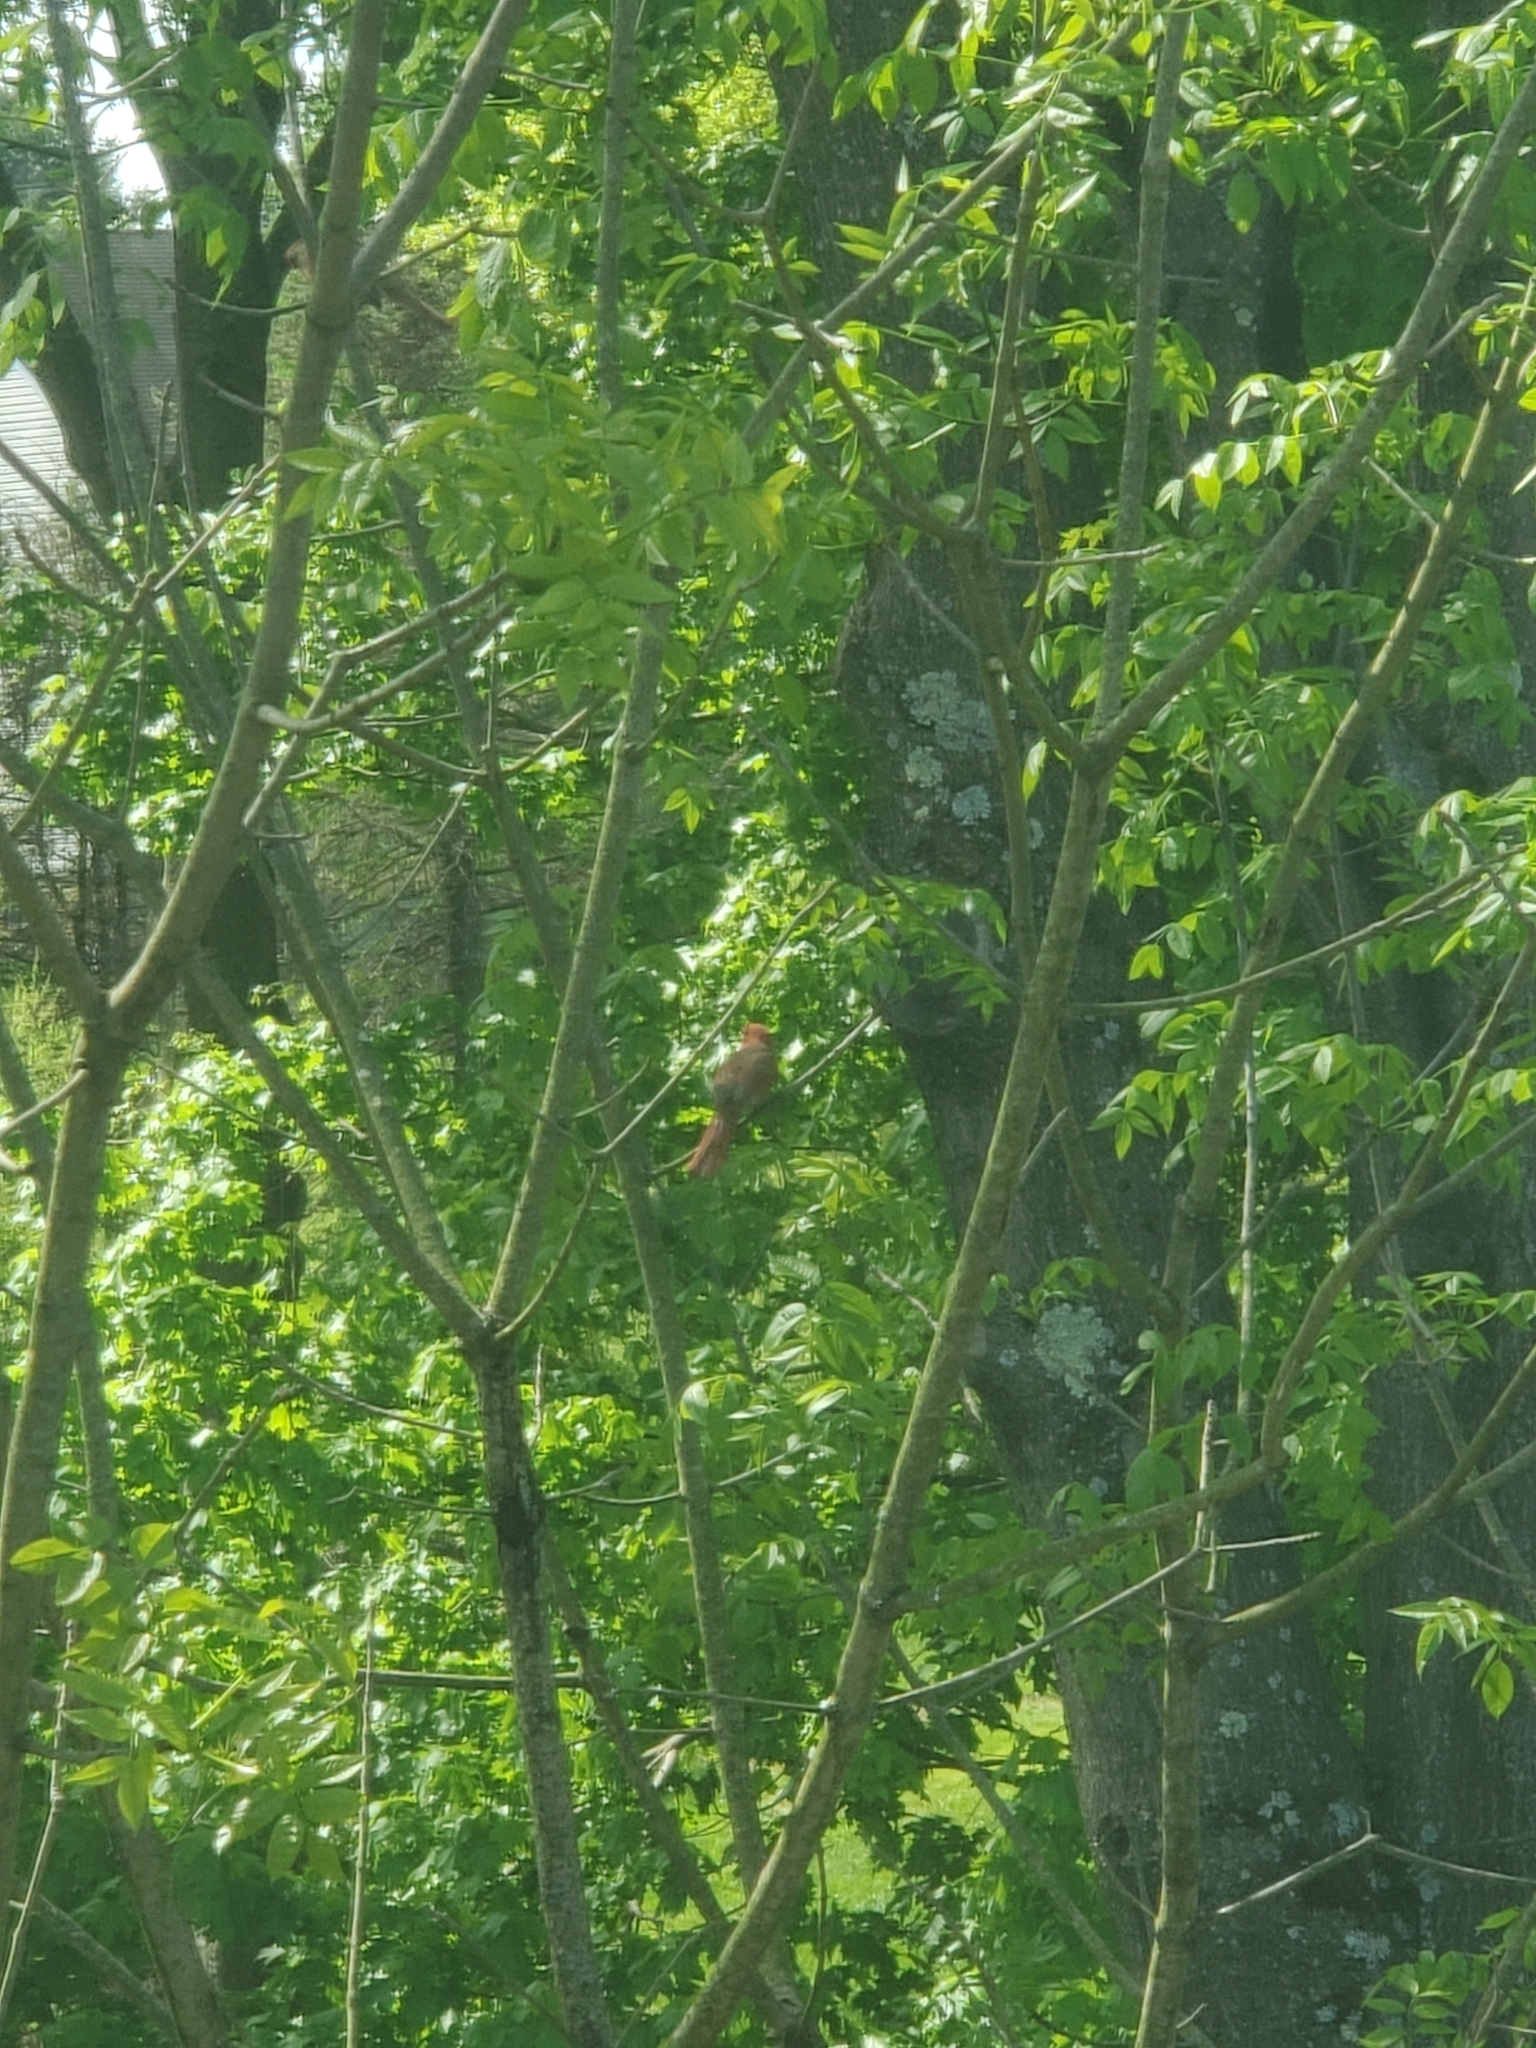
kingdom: Animalia
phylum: Chordata
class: Aves
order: Passeriformes
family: Cardinalidae
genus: Cardinalis
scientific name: Cardinalis cardinalis
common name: Northern cardinal
